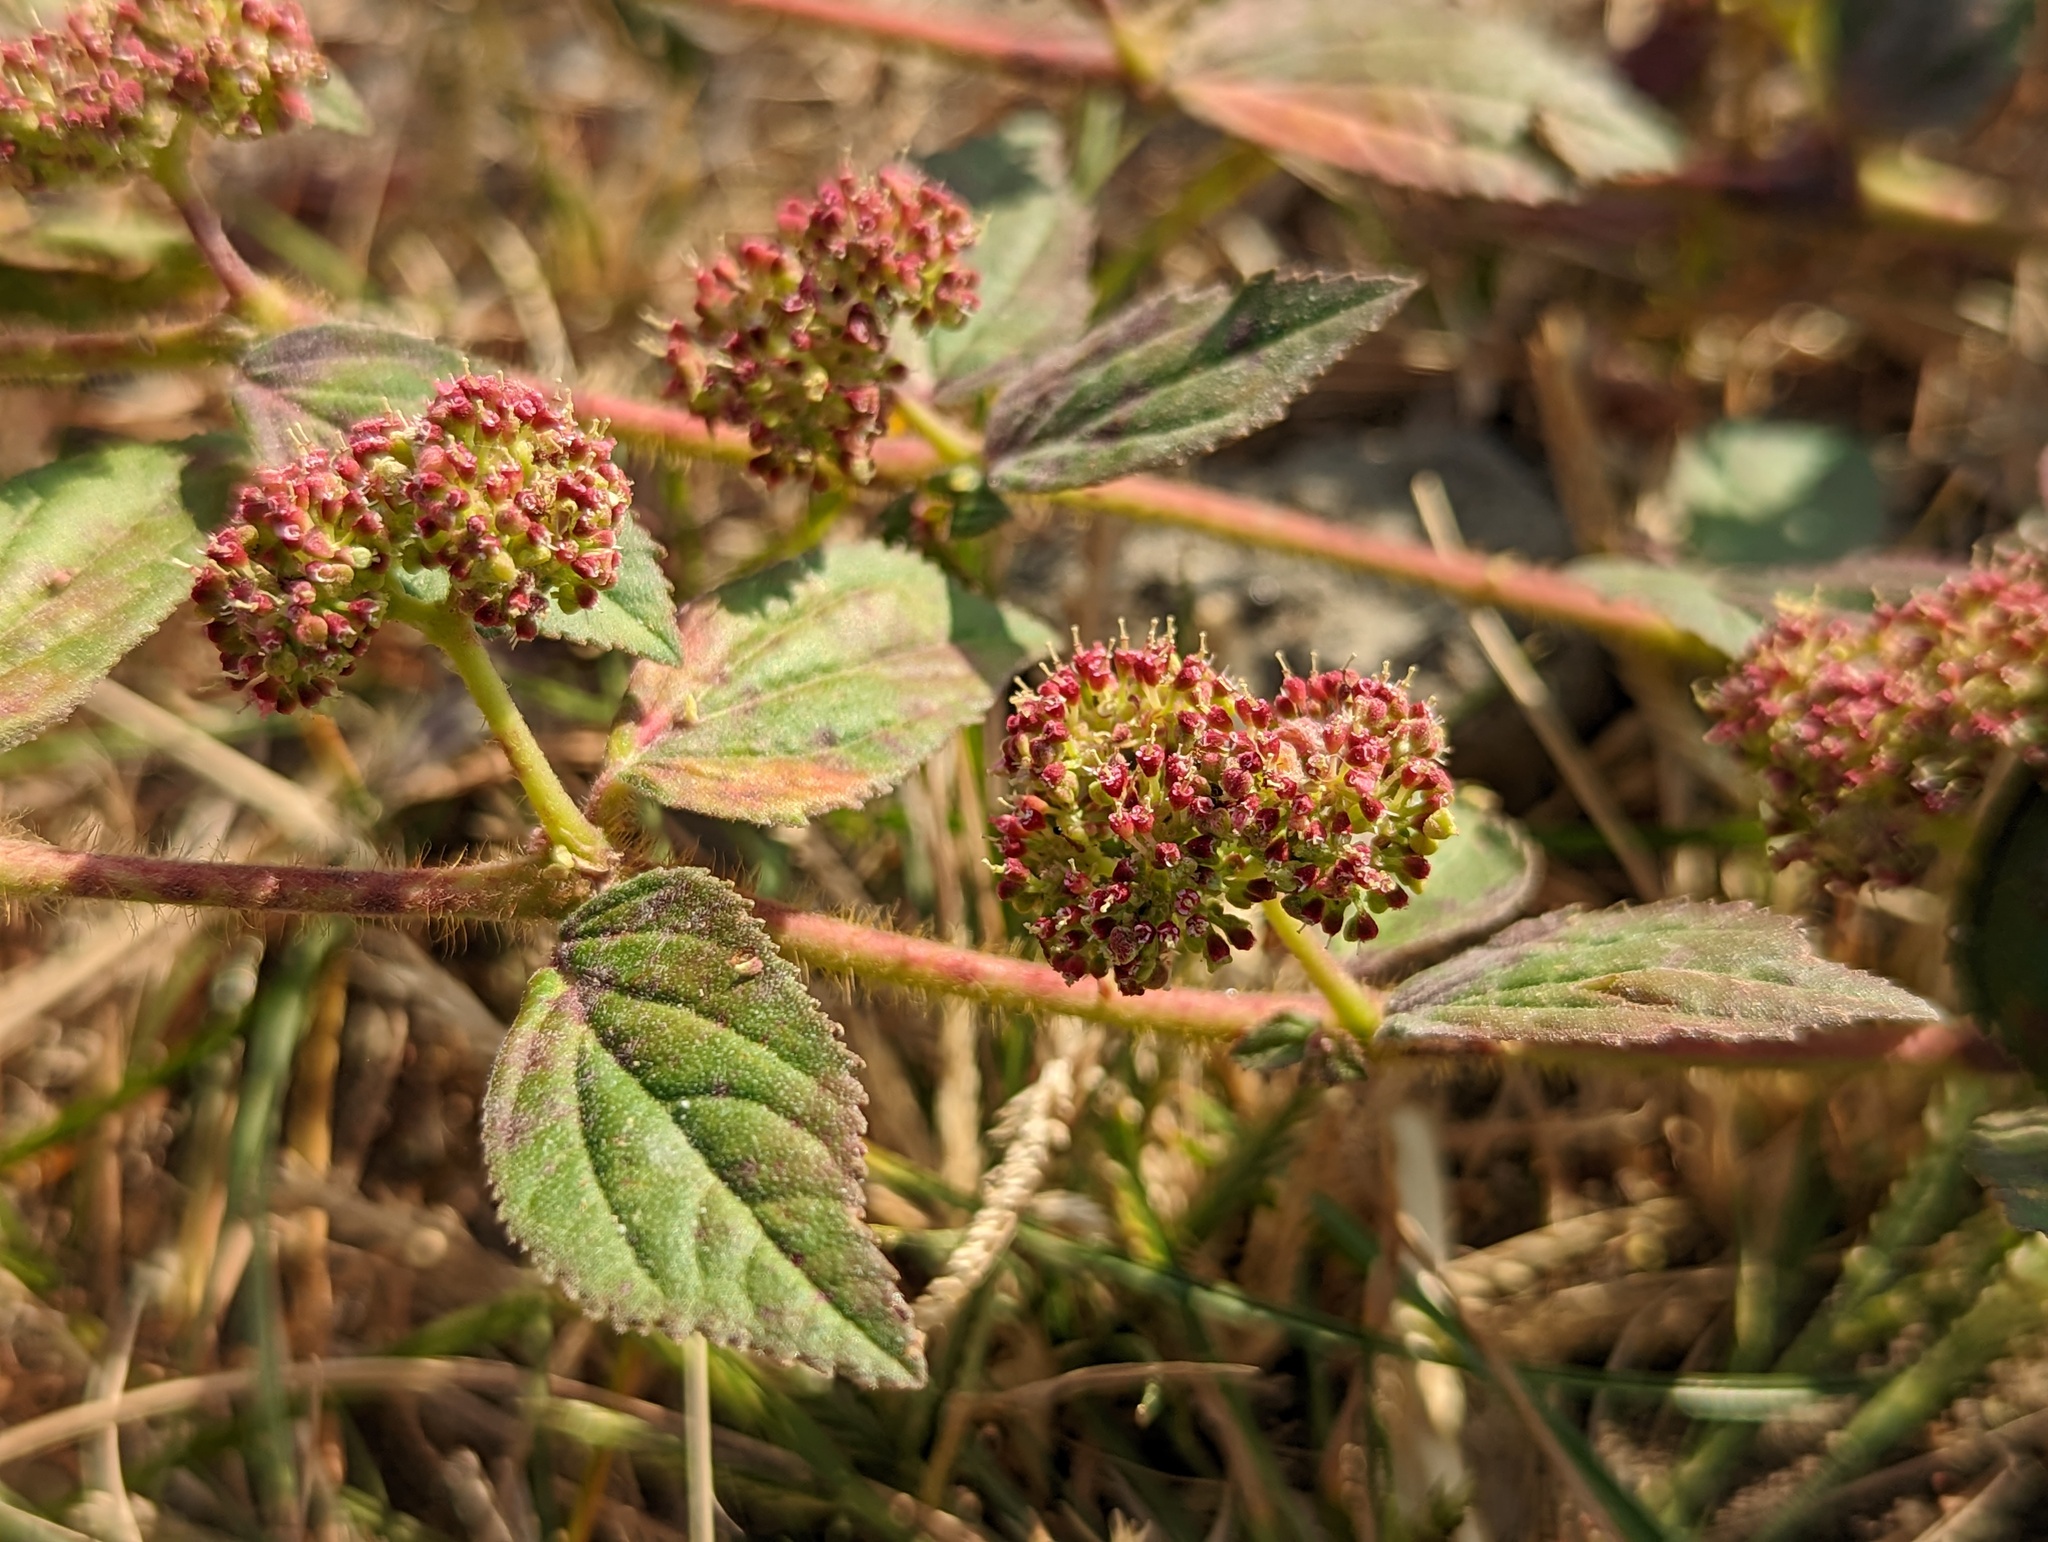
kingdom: Plantae
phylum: Tracheophyta
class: Magnoliopsida
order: Malpighiales
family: Euphorbiaceae
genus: Euphorbia
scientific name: Euphorbia hirta
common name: Pillpod sandmat
